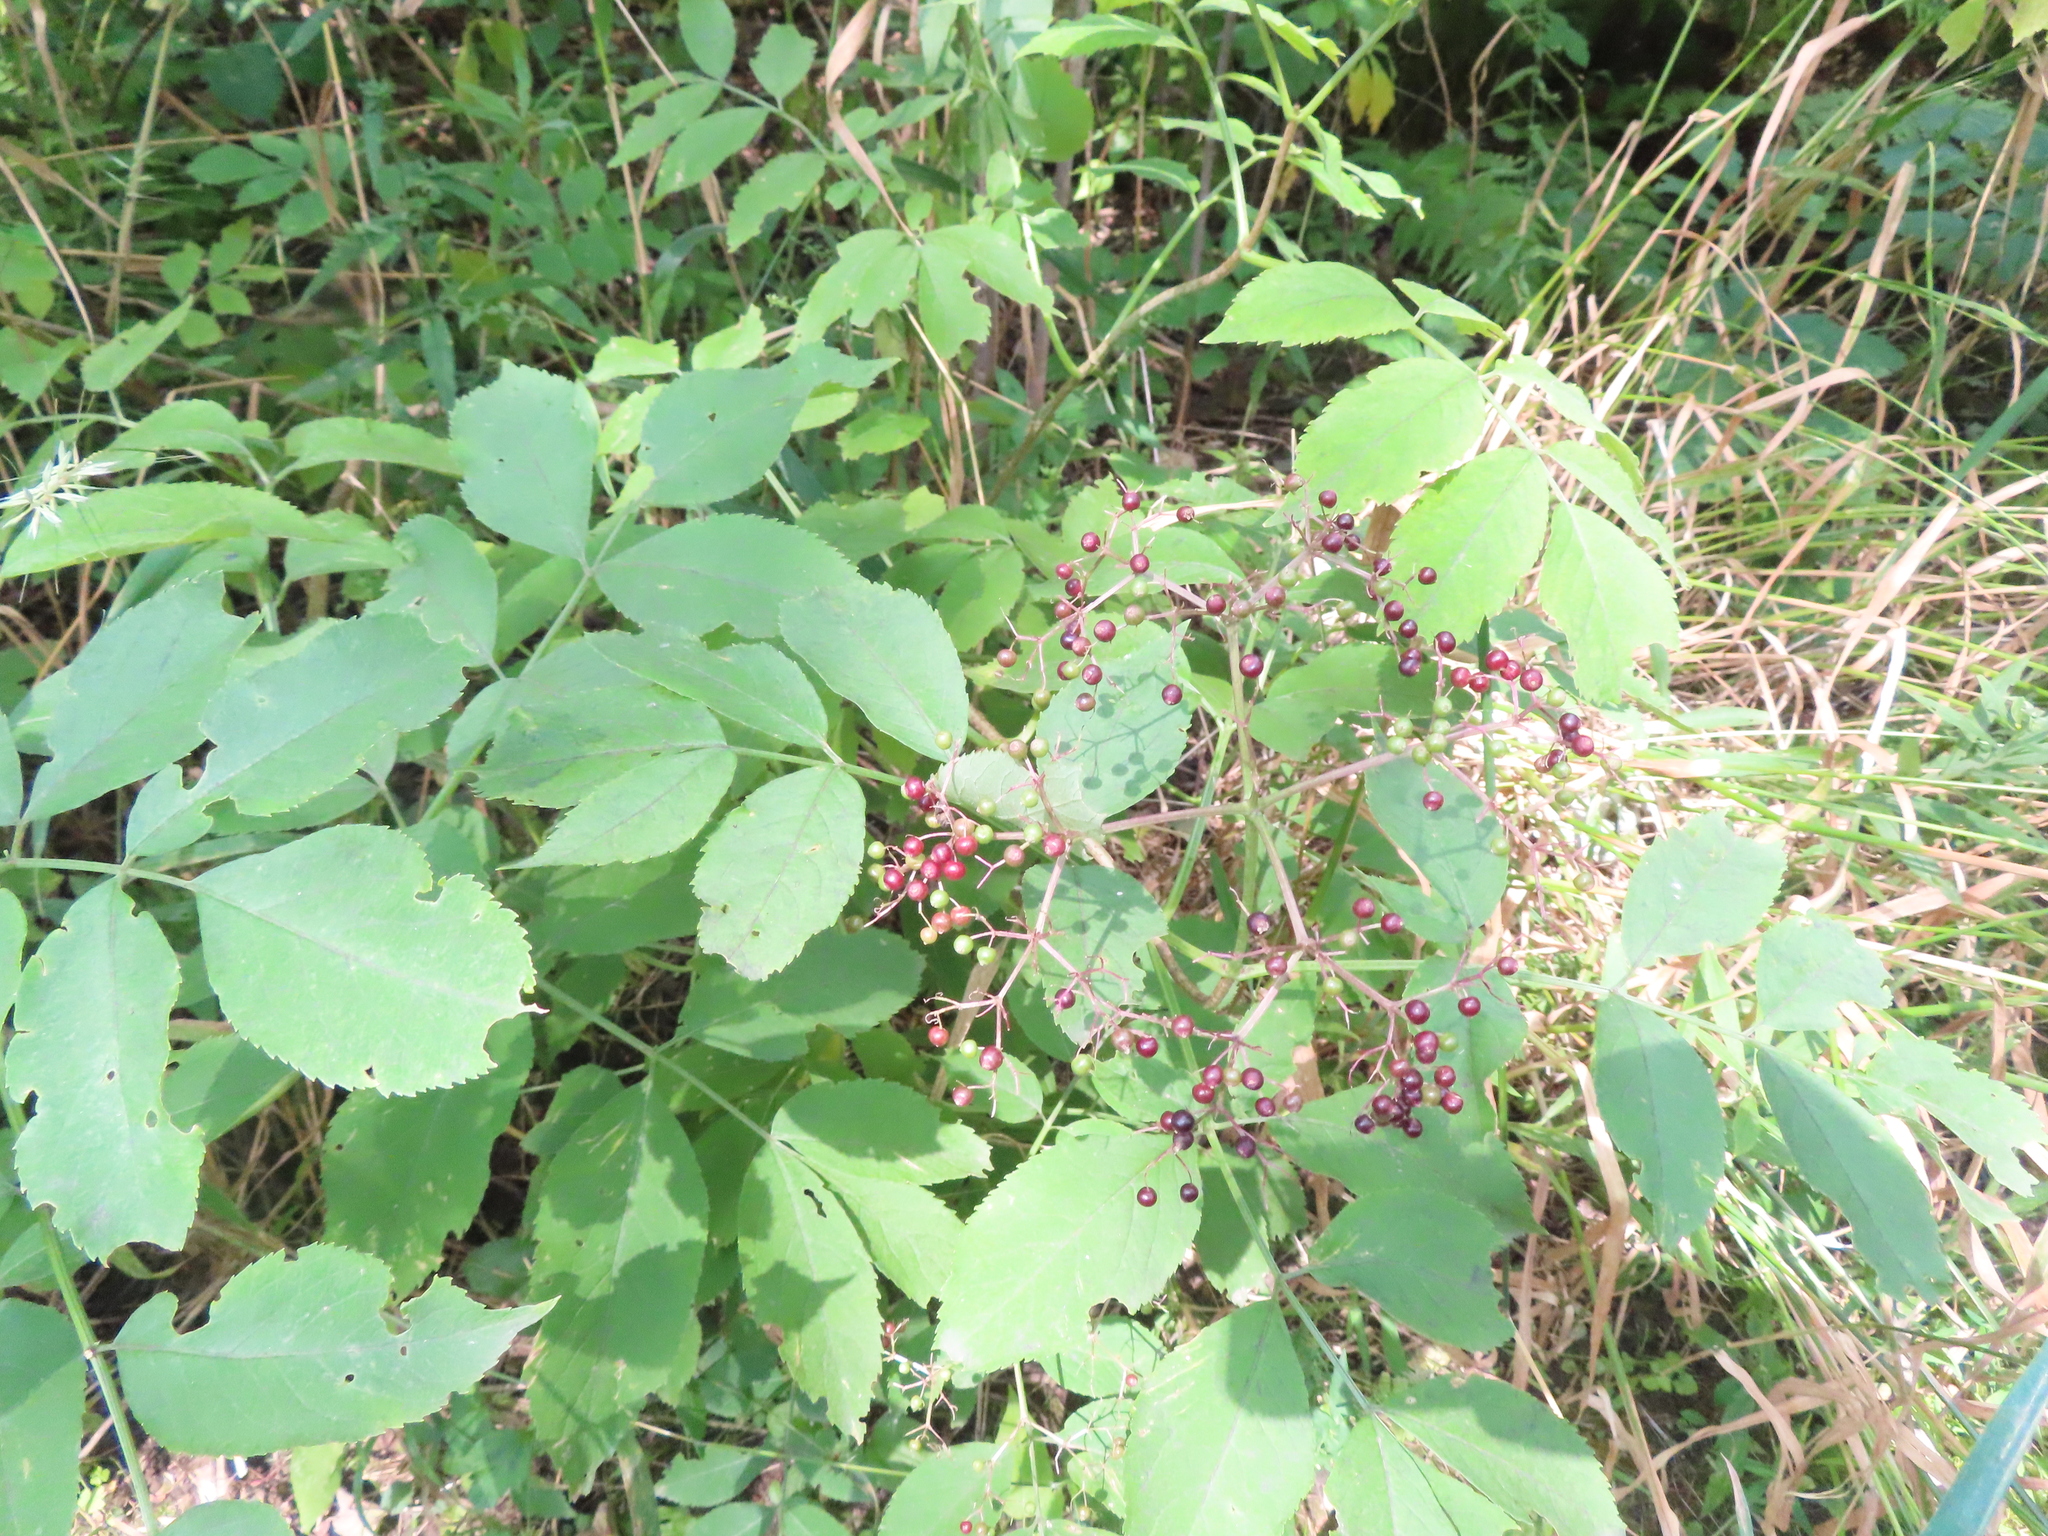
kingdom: Plantae
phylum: Tracheophyta
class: Magnoliopsida
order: Dipsacales
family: Viburnaceae
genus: Sambucus
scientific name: Sambucus canadensis
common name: American elder
